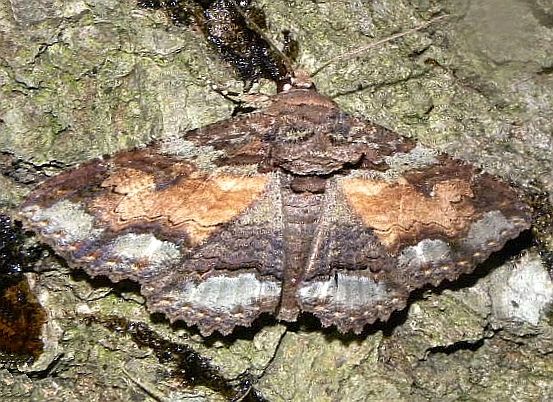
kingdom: Animalia
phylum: Arthropoda
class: Insecta
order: Lepidoptera
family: Erebidae
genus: Zale
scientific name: Zale lunata
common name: Lunate zale moth
